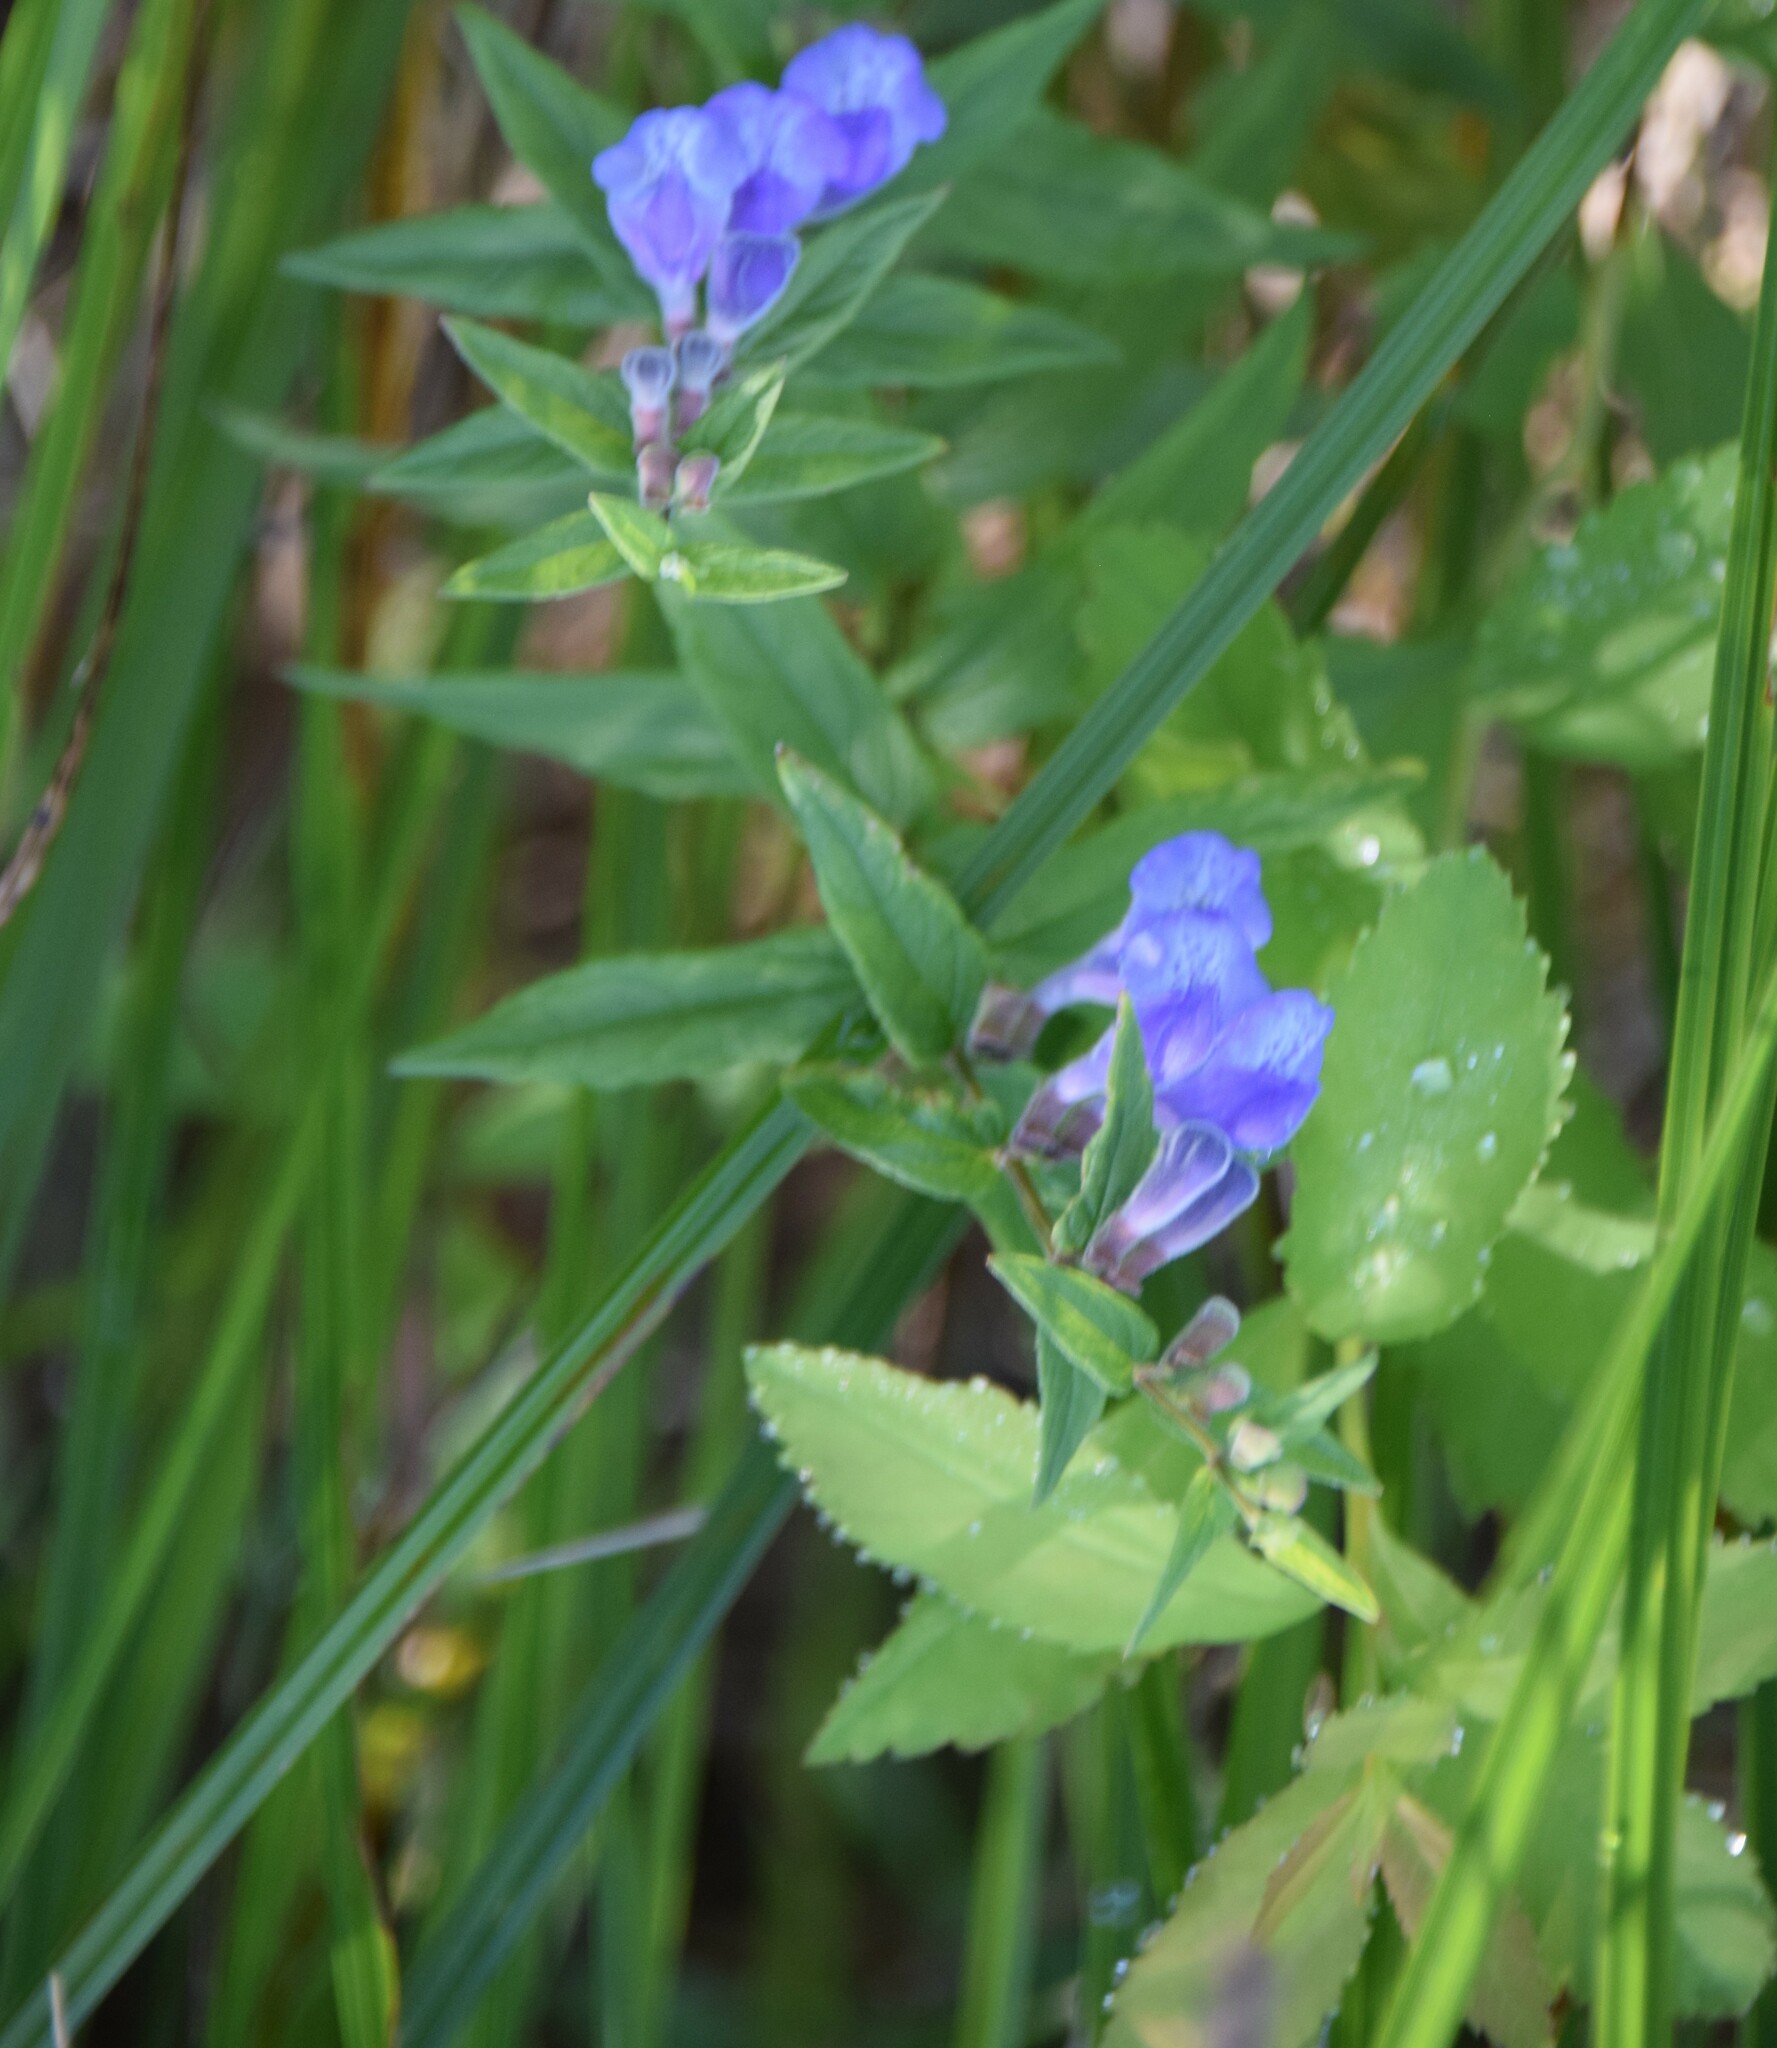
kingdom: Plantae
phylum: Tracheophyta
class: Magnoliopsida
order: Lamiales
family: Lamiaceae
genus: Scutellaria
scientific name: Scutellaria galericulata
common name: Skullcap
